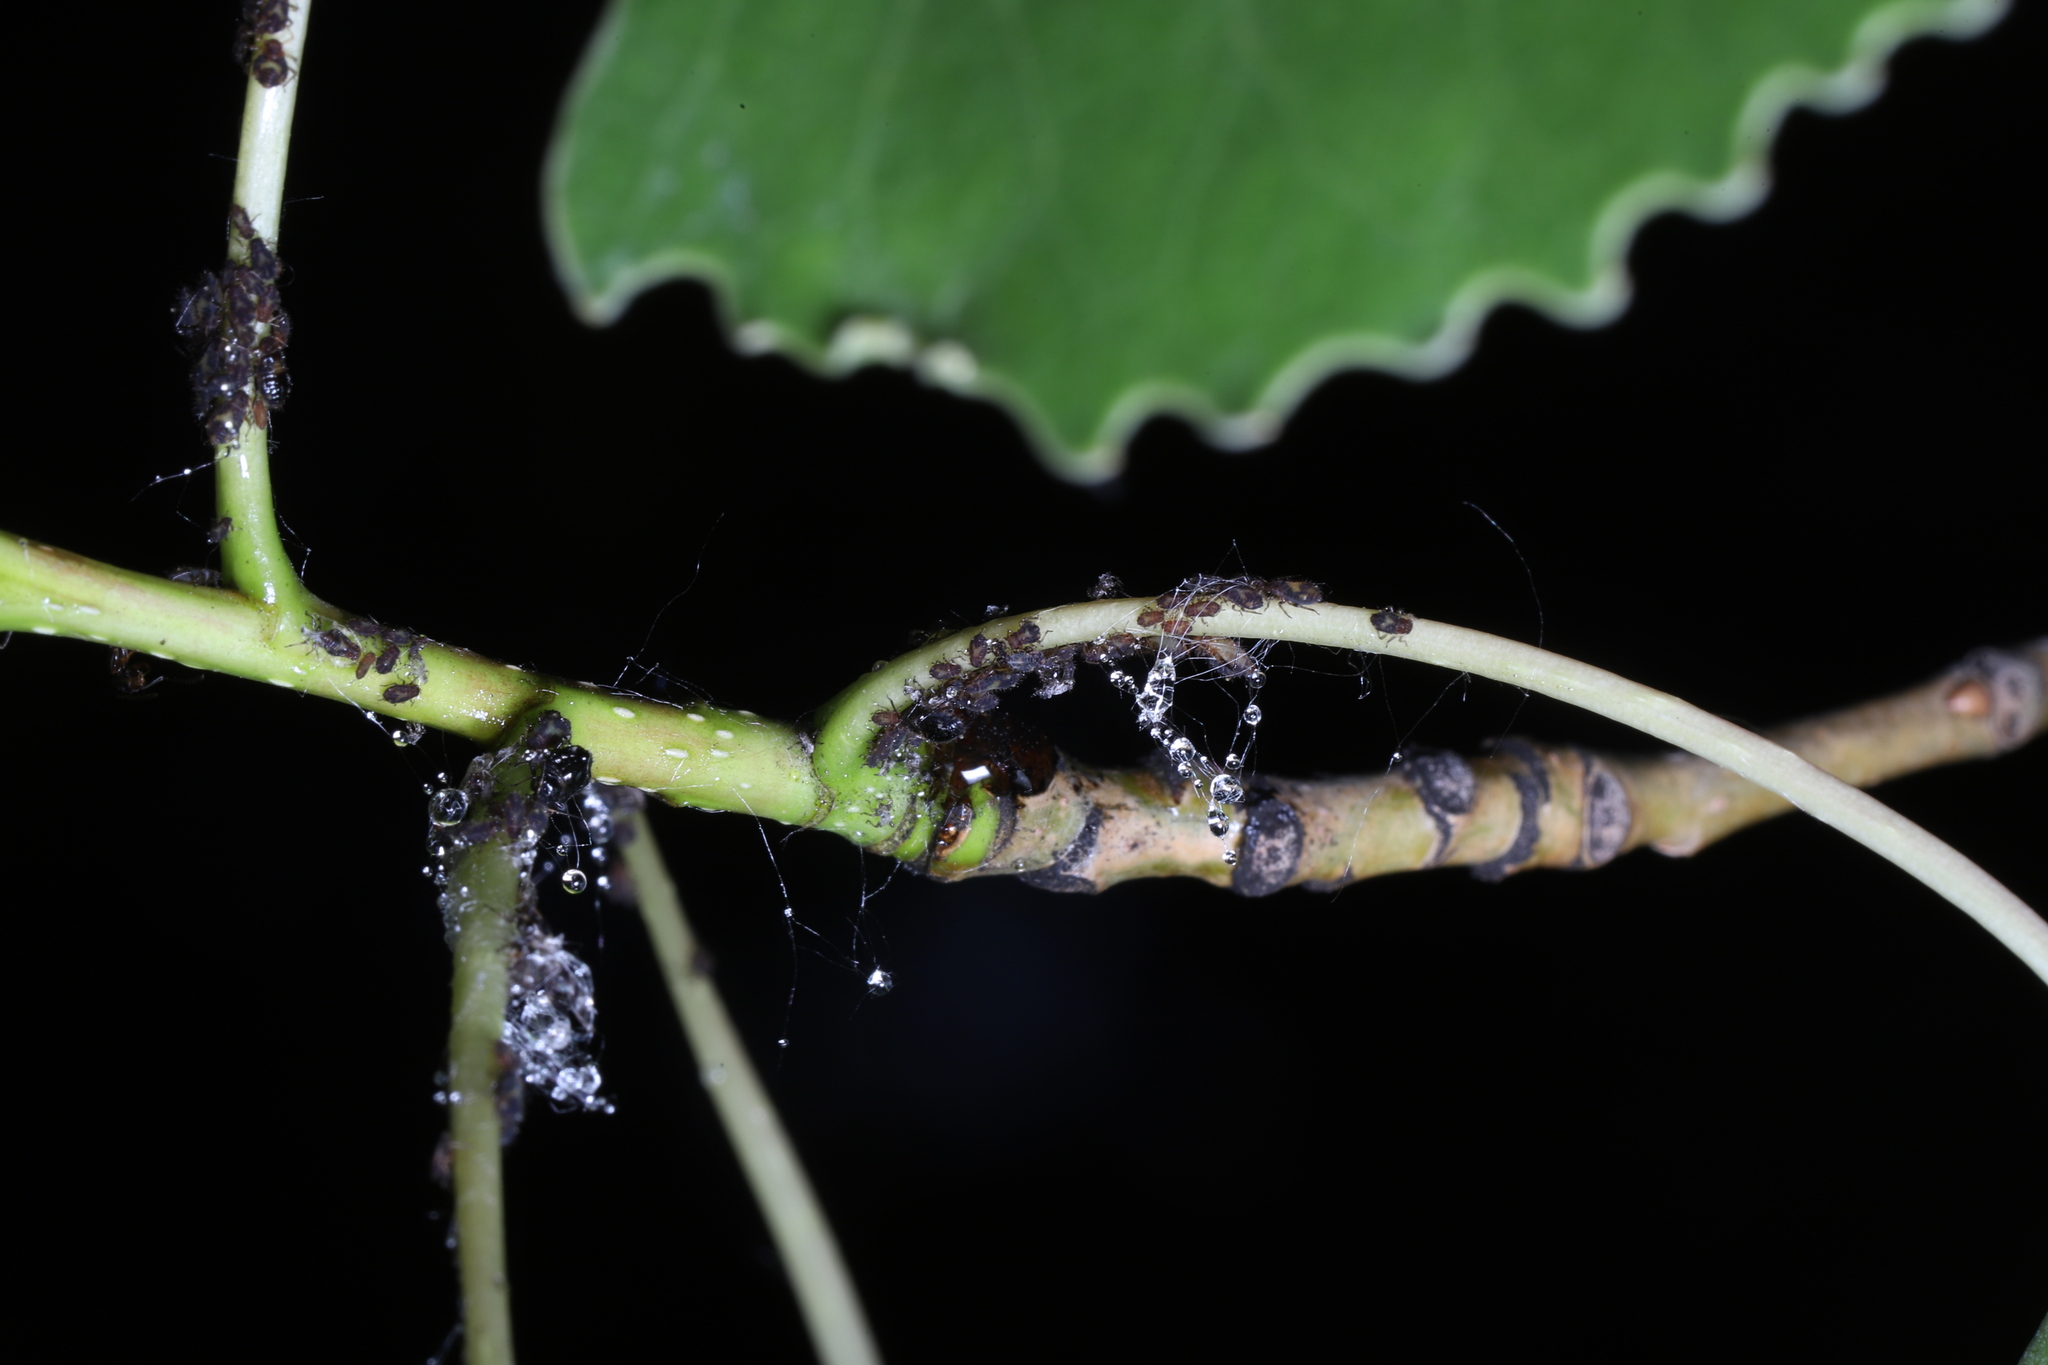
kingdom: Animalia
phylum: Arthropoda
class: Insecta
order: Hemiptera
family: Aphididae
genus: Chaitophorus
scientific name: Chaitophorus populicola
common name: Smokywinged poplar aphid
